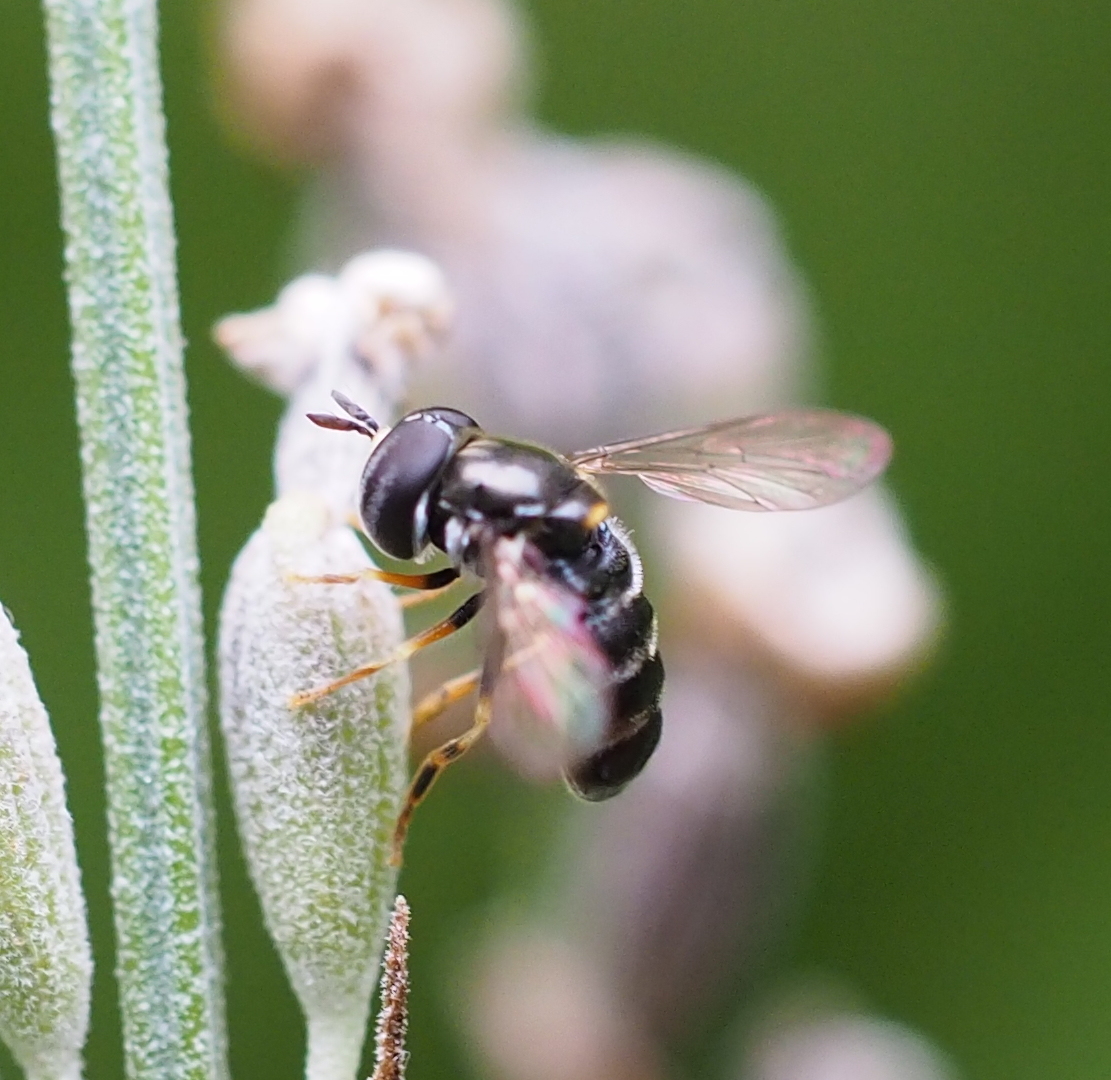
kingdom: Animalia
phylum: Arthropoda
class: Insecta
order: Diptera
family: Syrphidae
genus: Paragus
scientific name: Paragus pecchiolii
